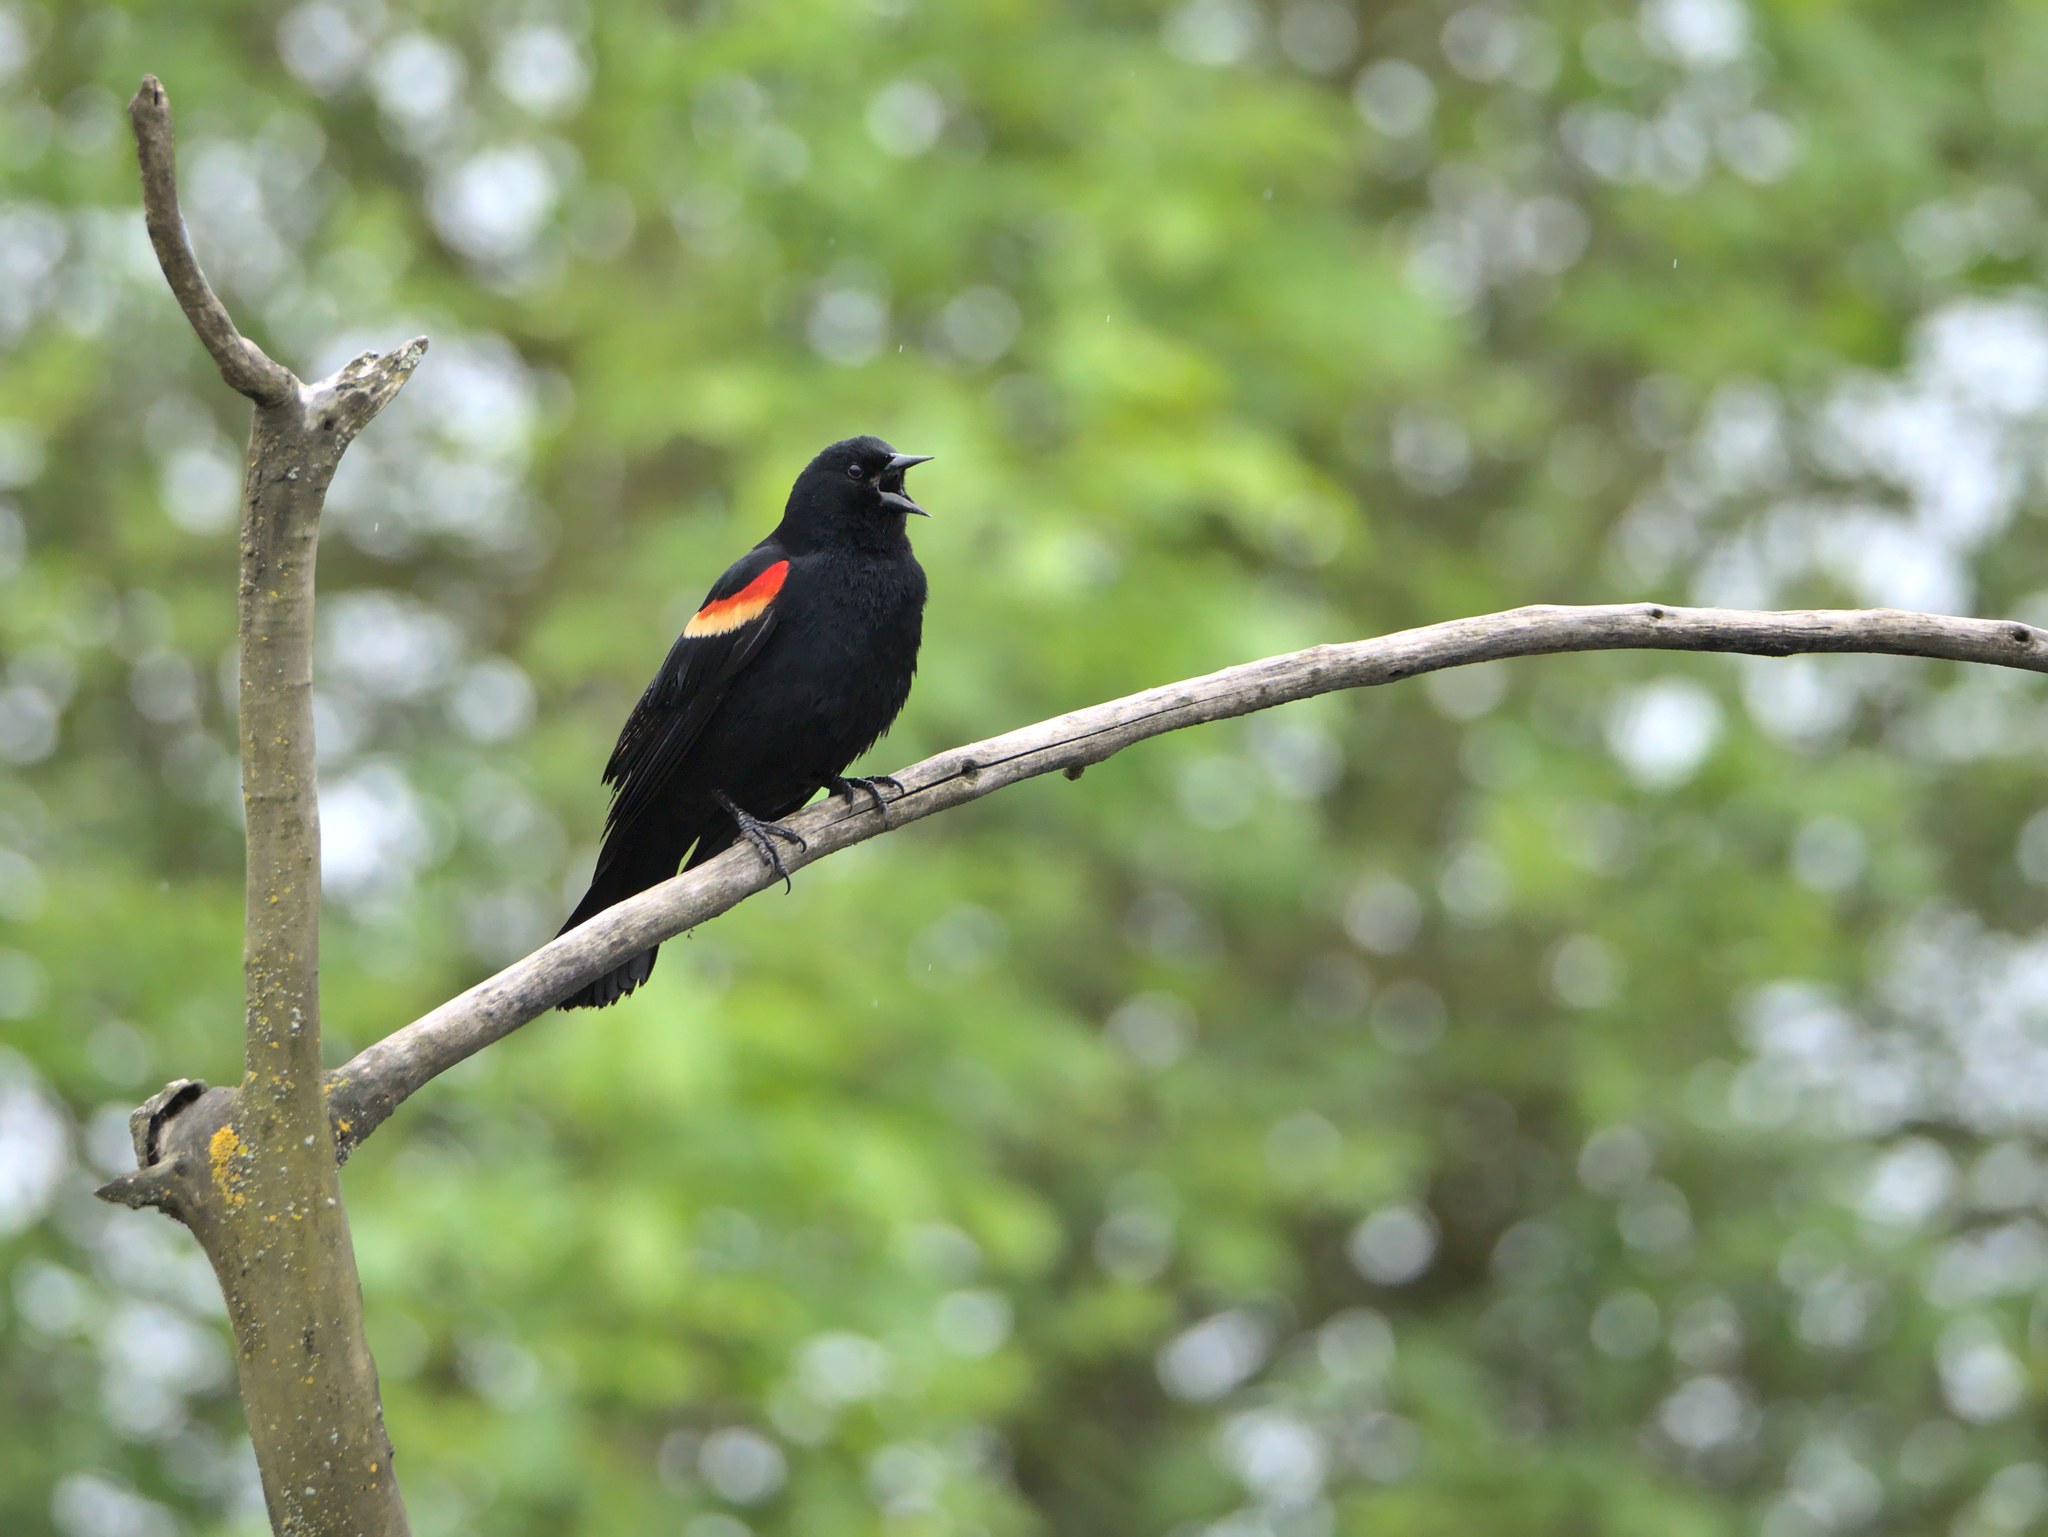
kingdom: Animalia
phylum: Chordata
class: Aves
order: Passeriformes
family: Icteridae
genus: Agelaius
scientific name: Agelaius phoeniceus
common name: Red-winged blackbird
